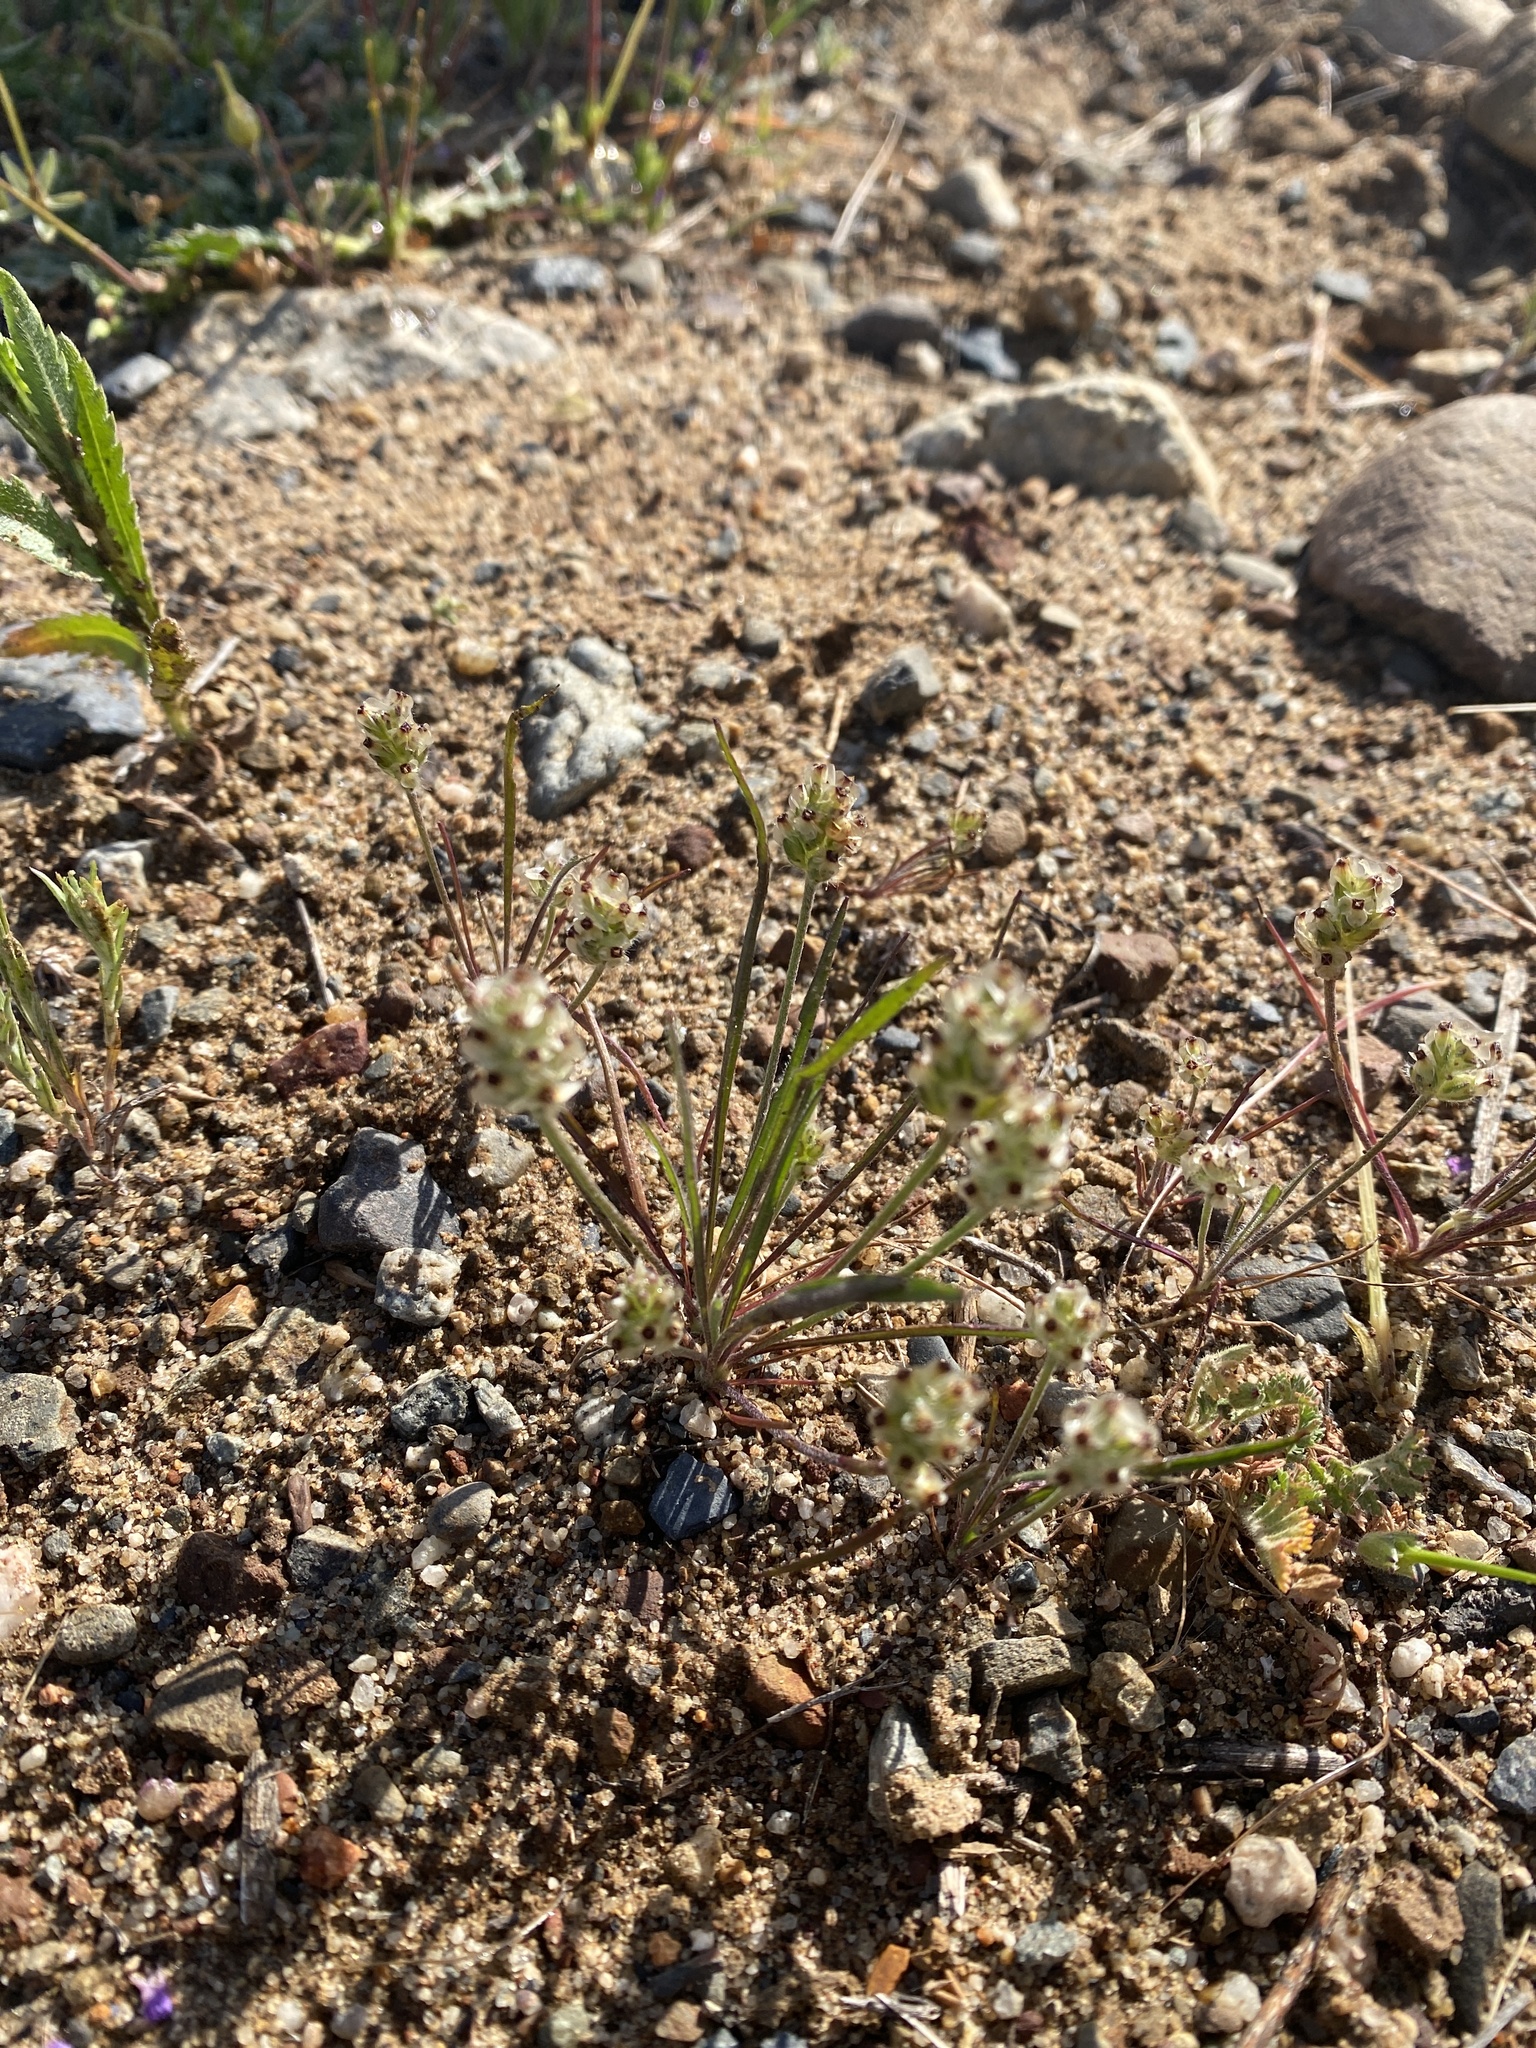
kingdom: Plantae
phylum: Tracheophyta
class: Magnoliopsida
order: Lamiales
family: Plantaginaceae
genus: Plantago
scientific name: Plantago erecta
